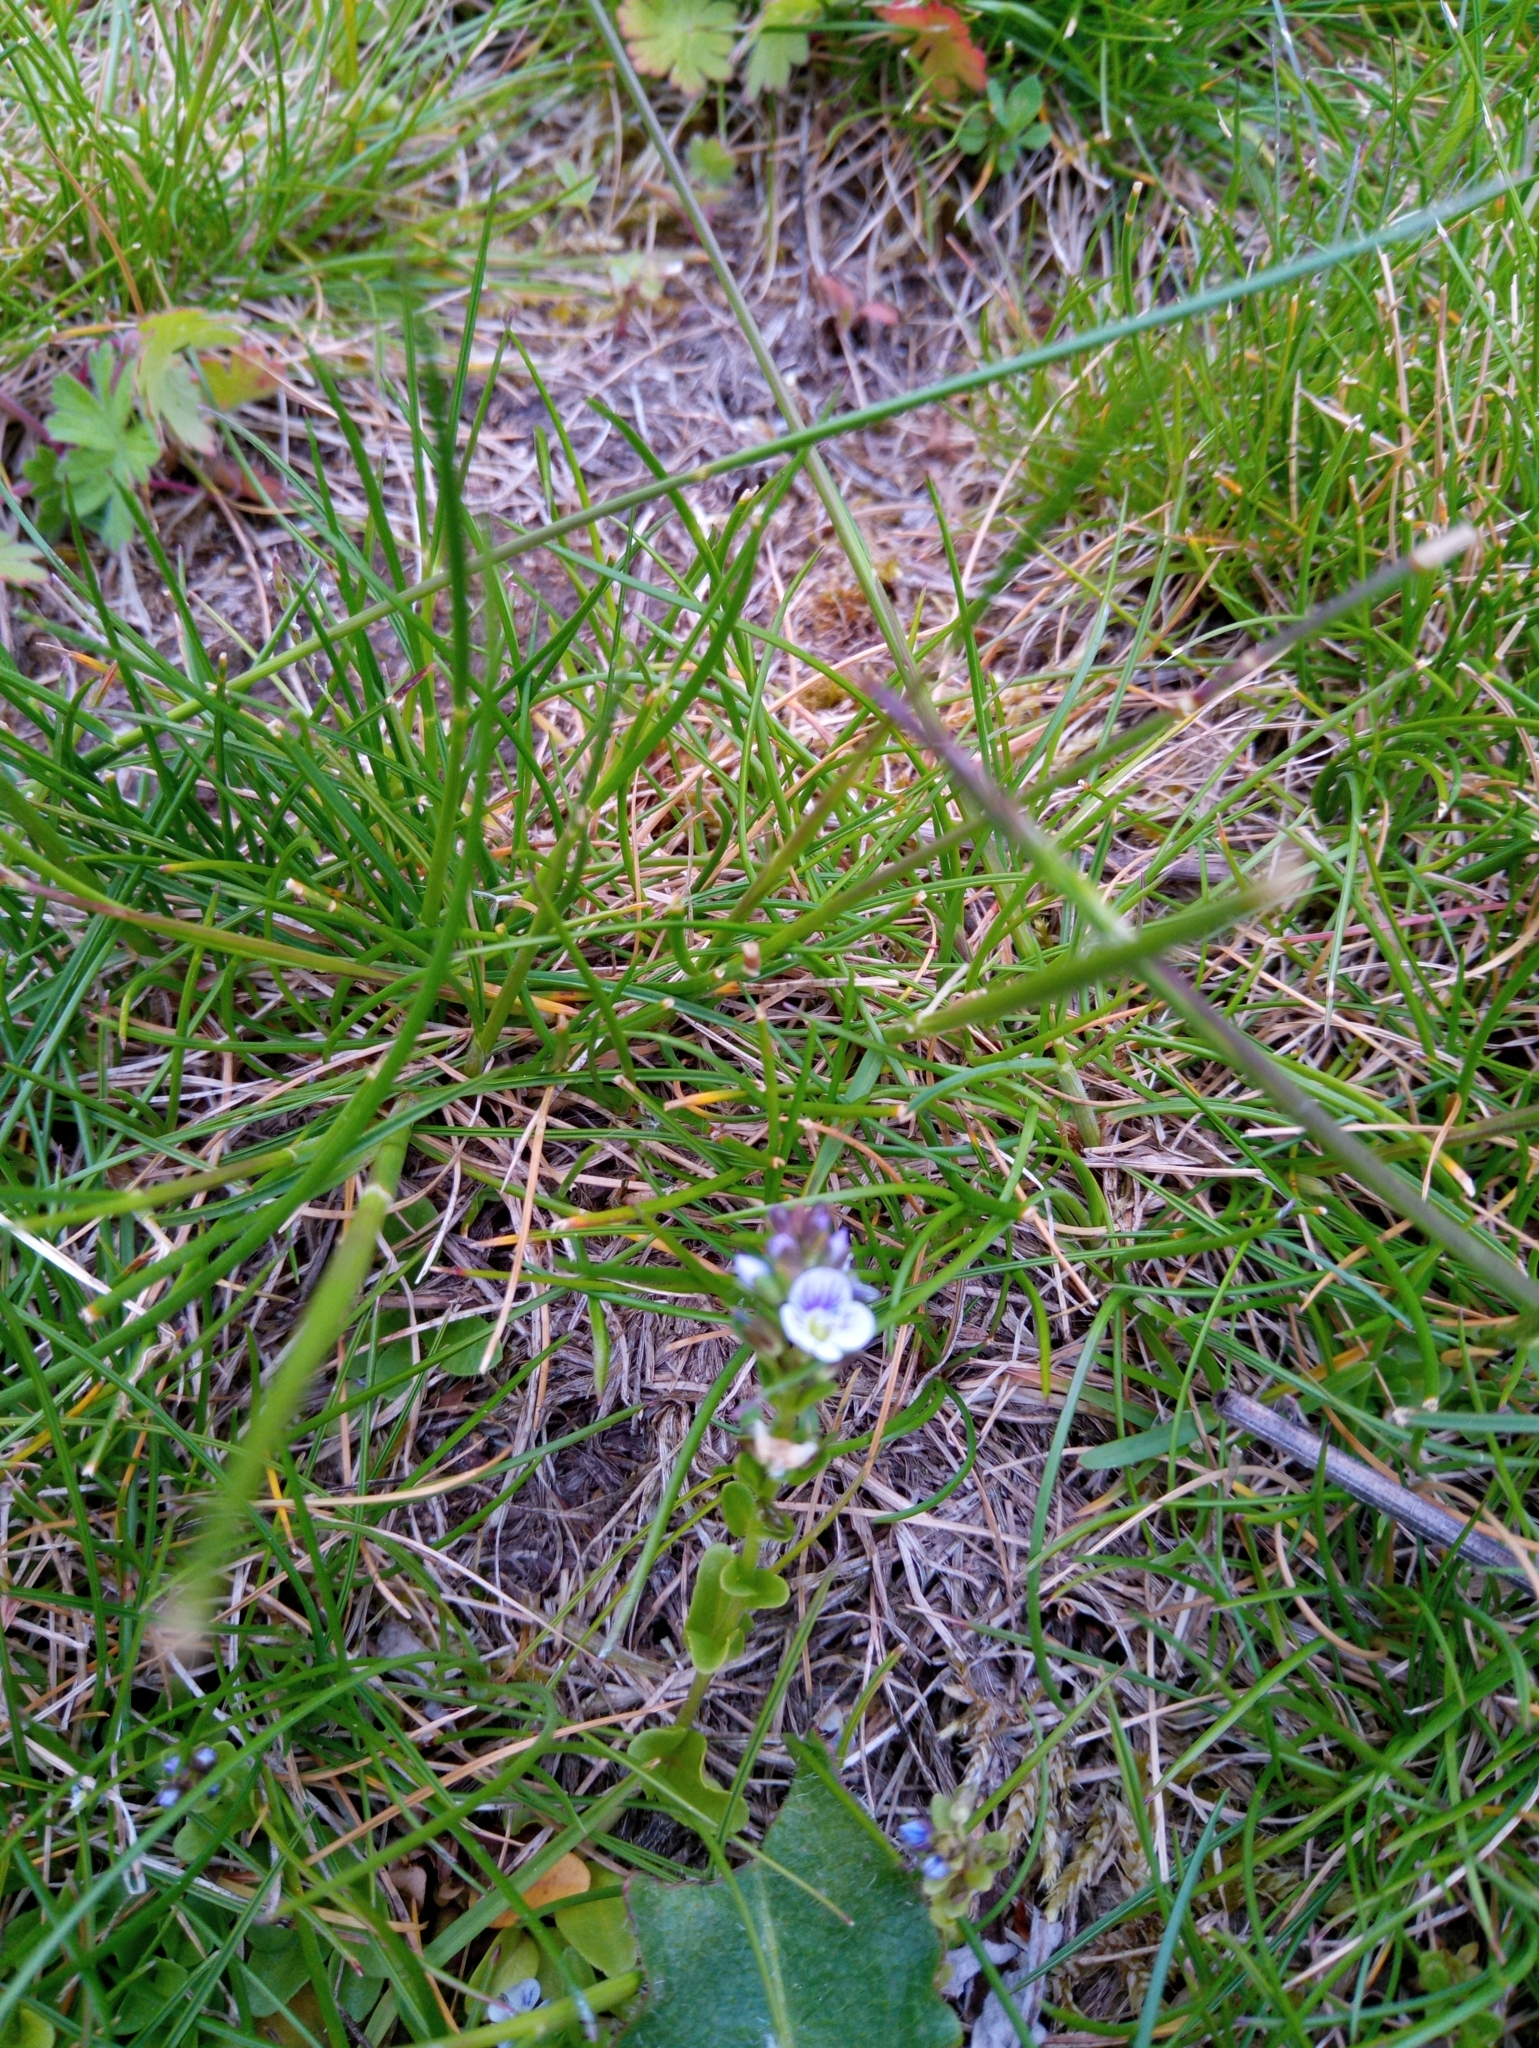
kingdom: Plantae
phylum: Tracheophyta
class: Magnoliopsida
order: Lamiales
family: Plantaginaceae
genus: Veronica
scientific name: Veronica serpyllifolia
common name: Thyme-leaved speedwell
